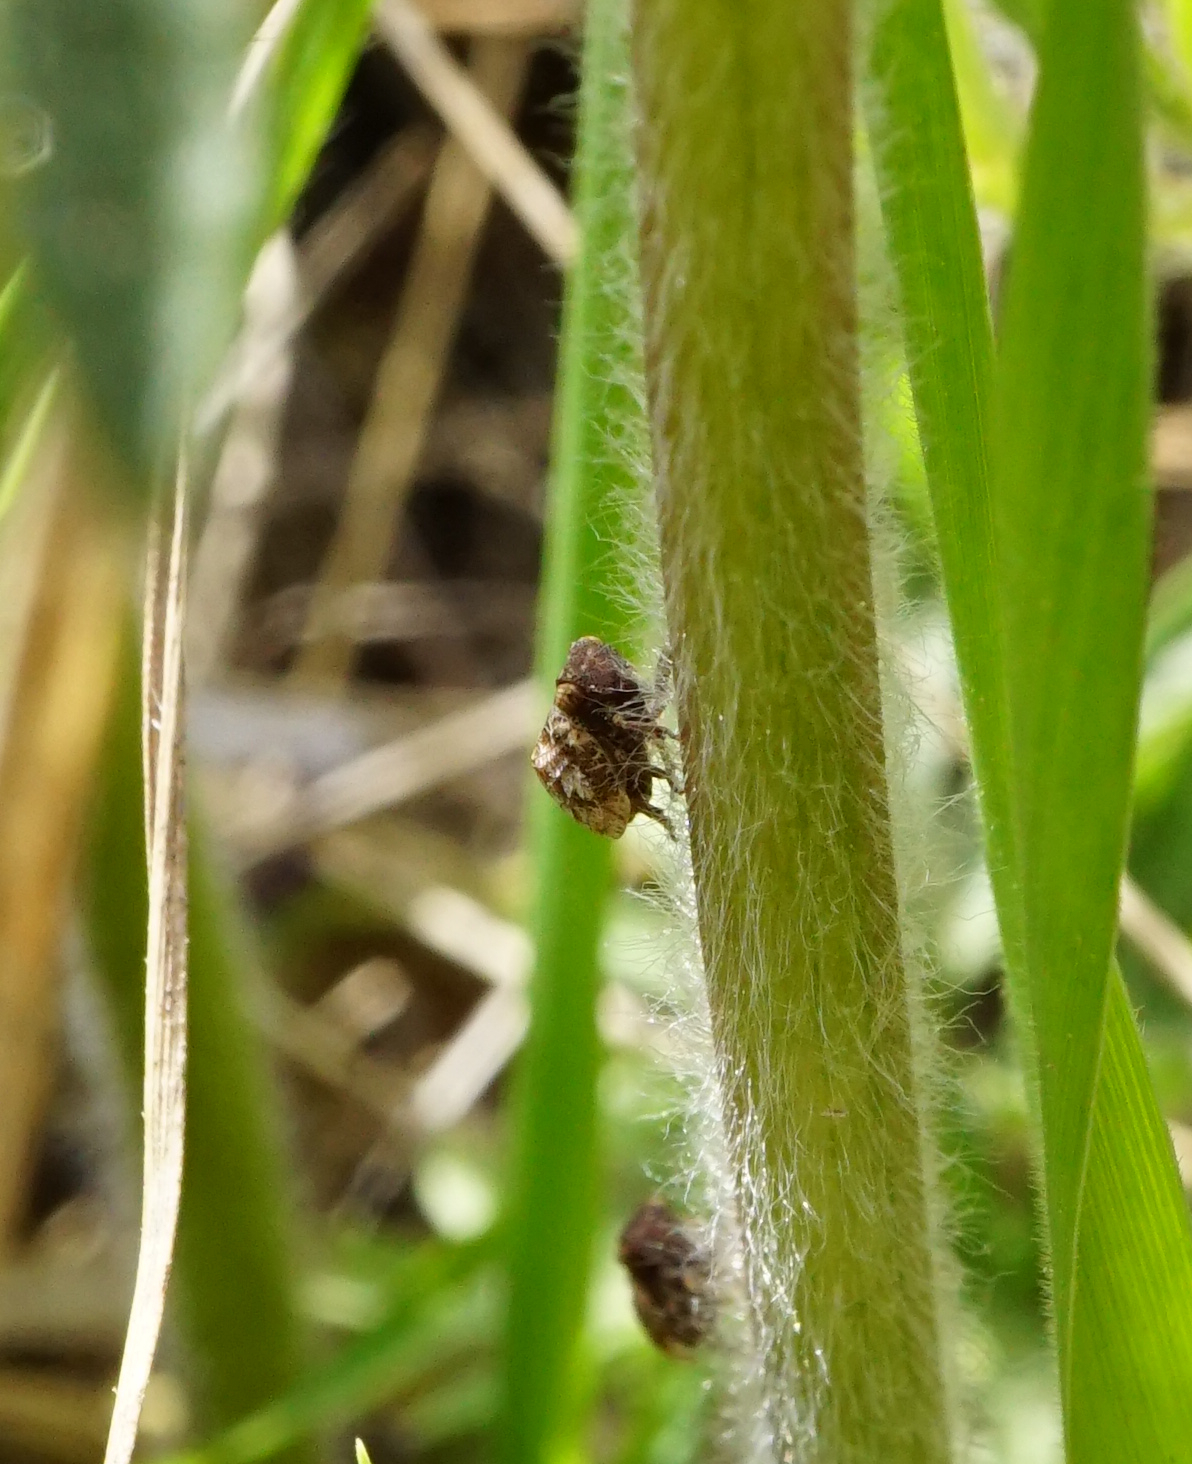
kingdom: Animalia
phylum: Arthropoda
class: Insecta
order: Hemiptera
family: Issidae
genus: Hysteropterum
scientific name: Hysteropterum reticulatum
